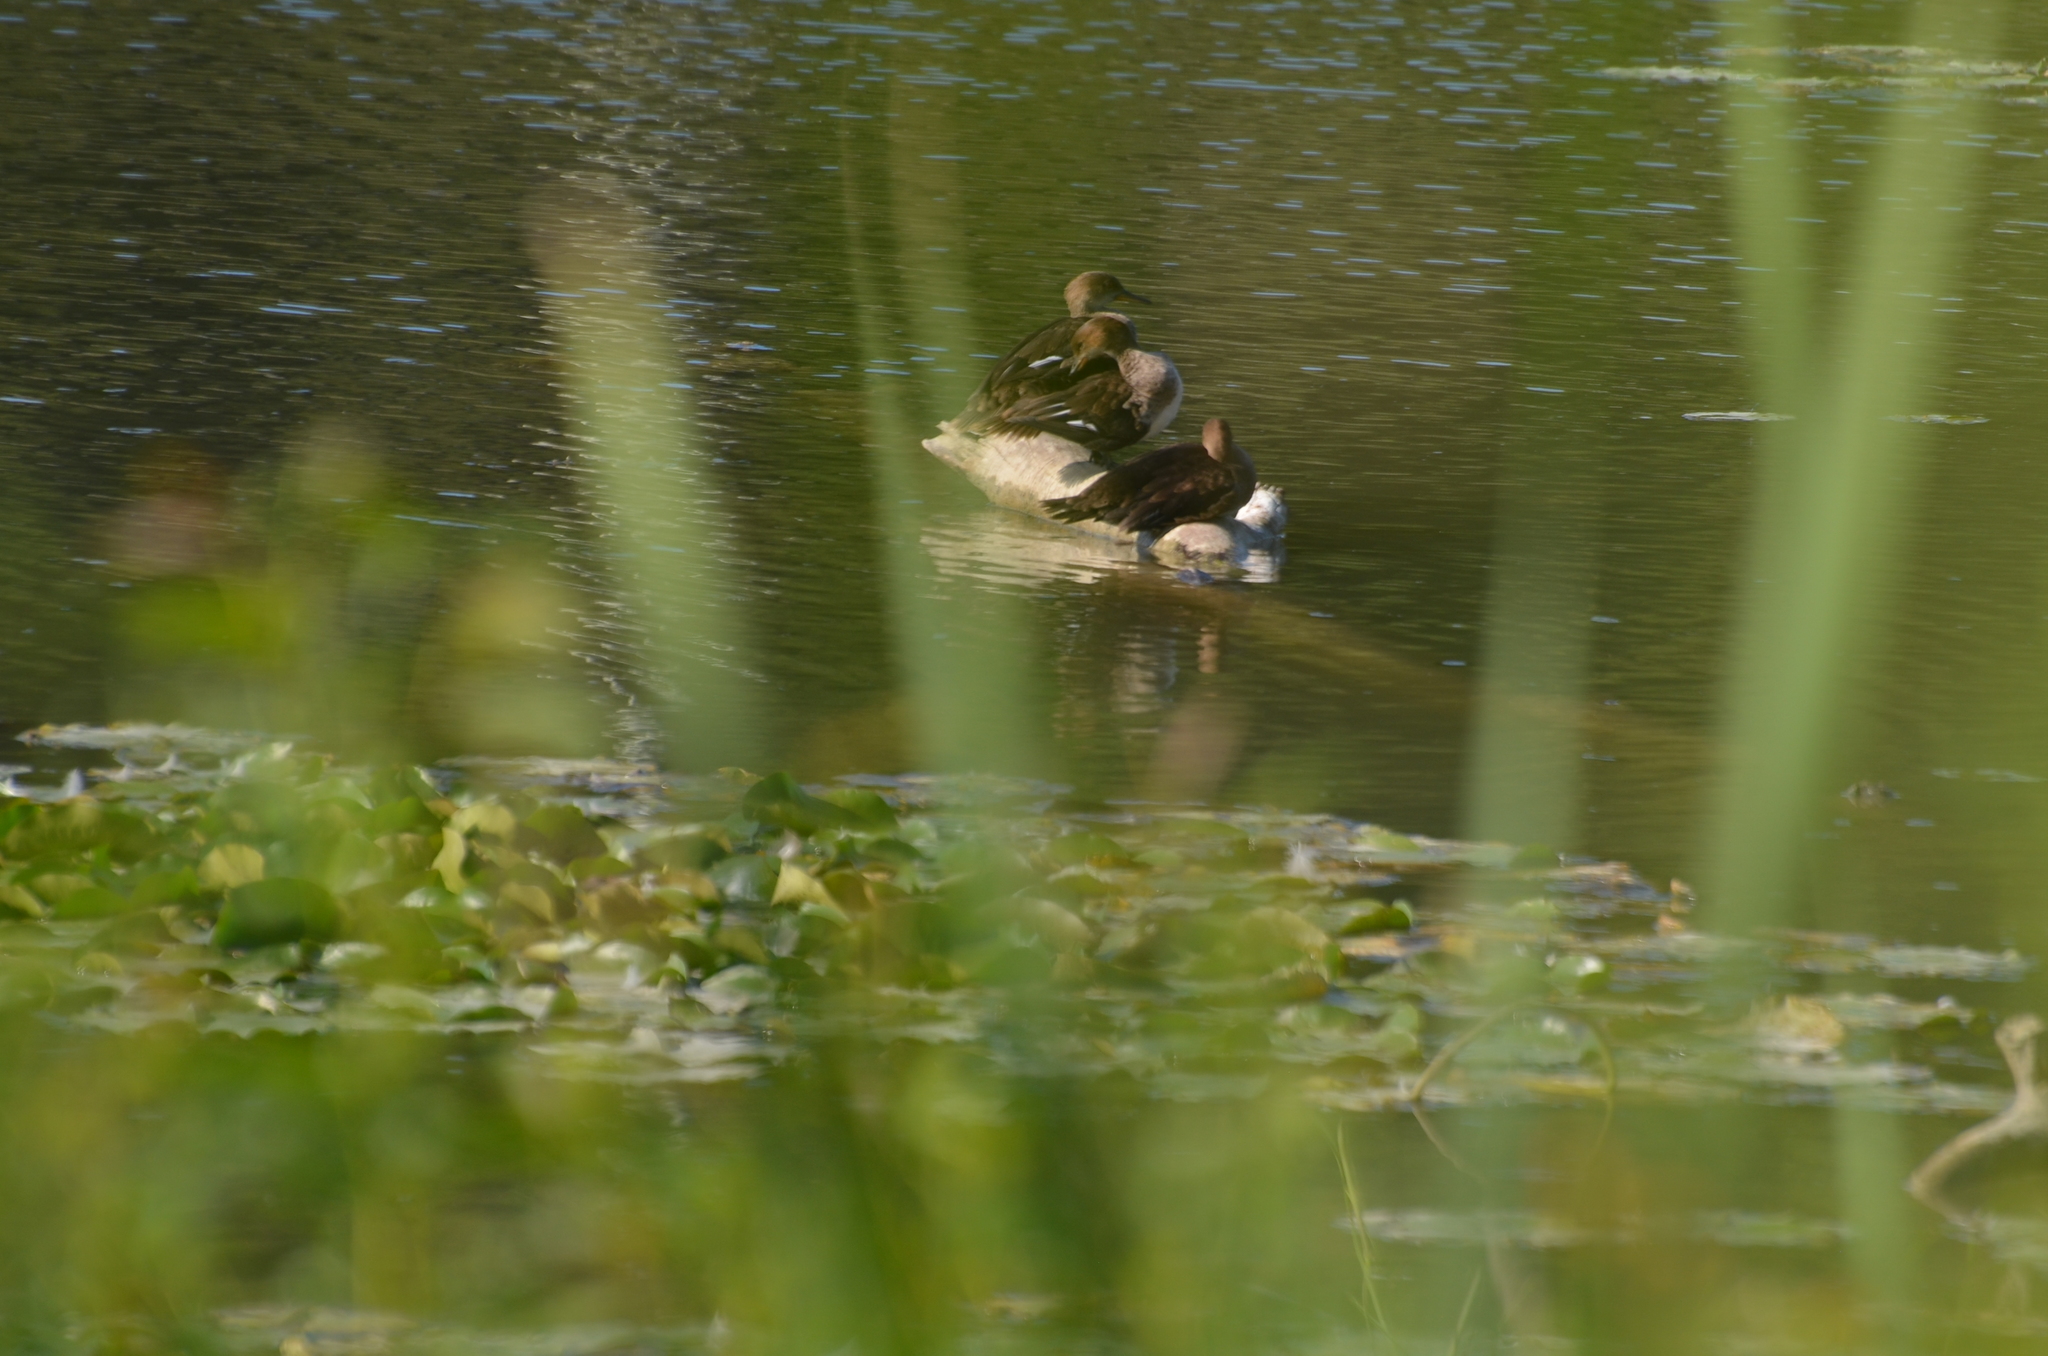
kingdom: Animalia
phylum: Chordata
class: Aves
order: Anseriformes
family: Anatidae
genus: Lophodytes
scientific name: Lophodytes cucullatus
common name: Hooded merganser
